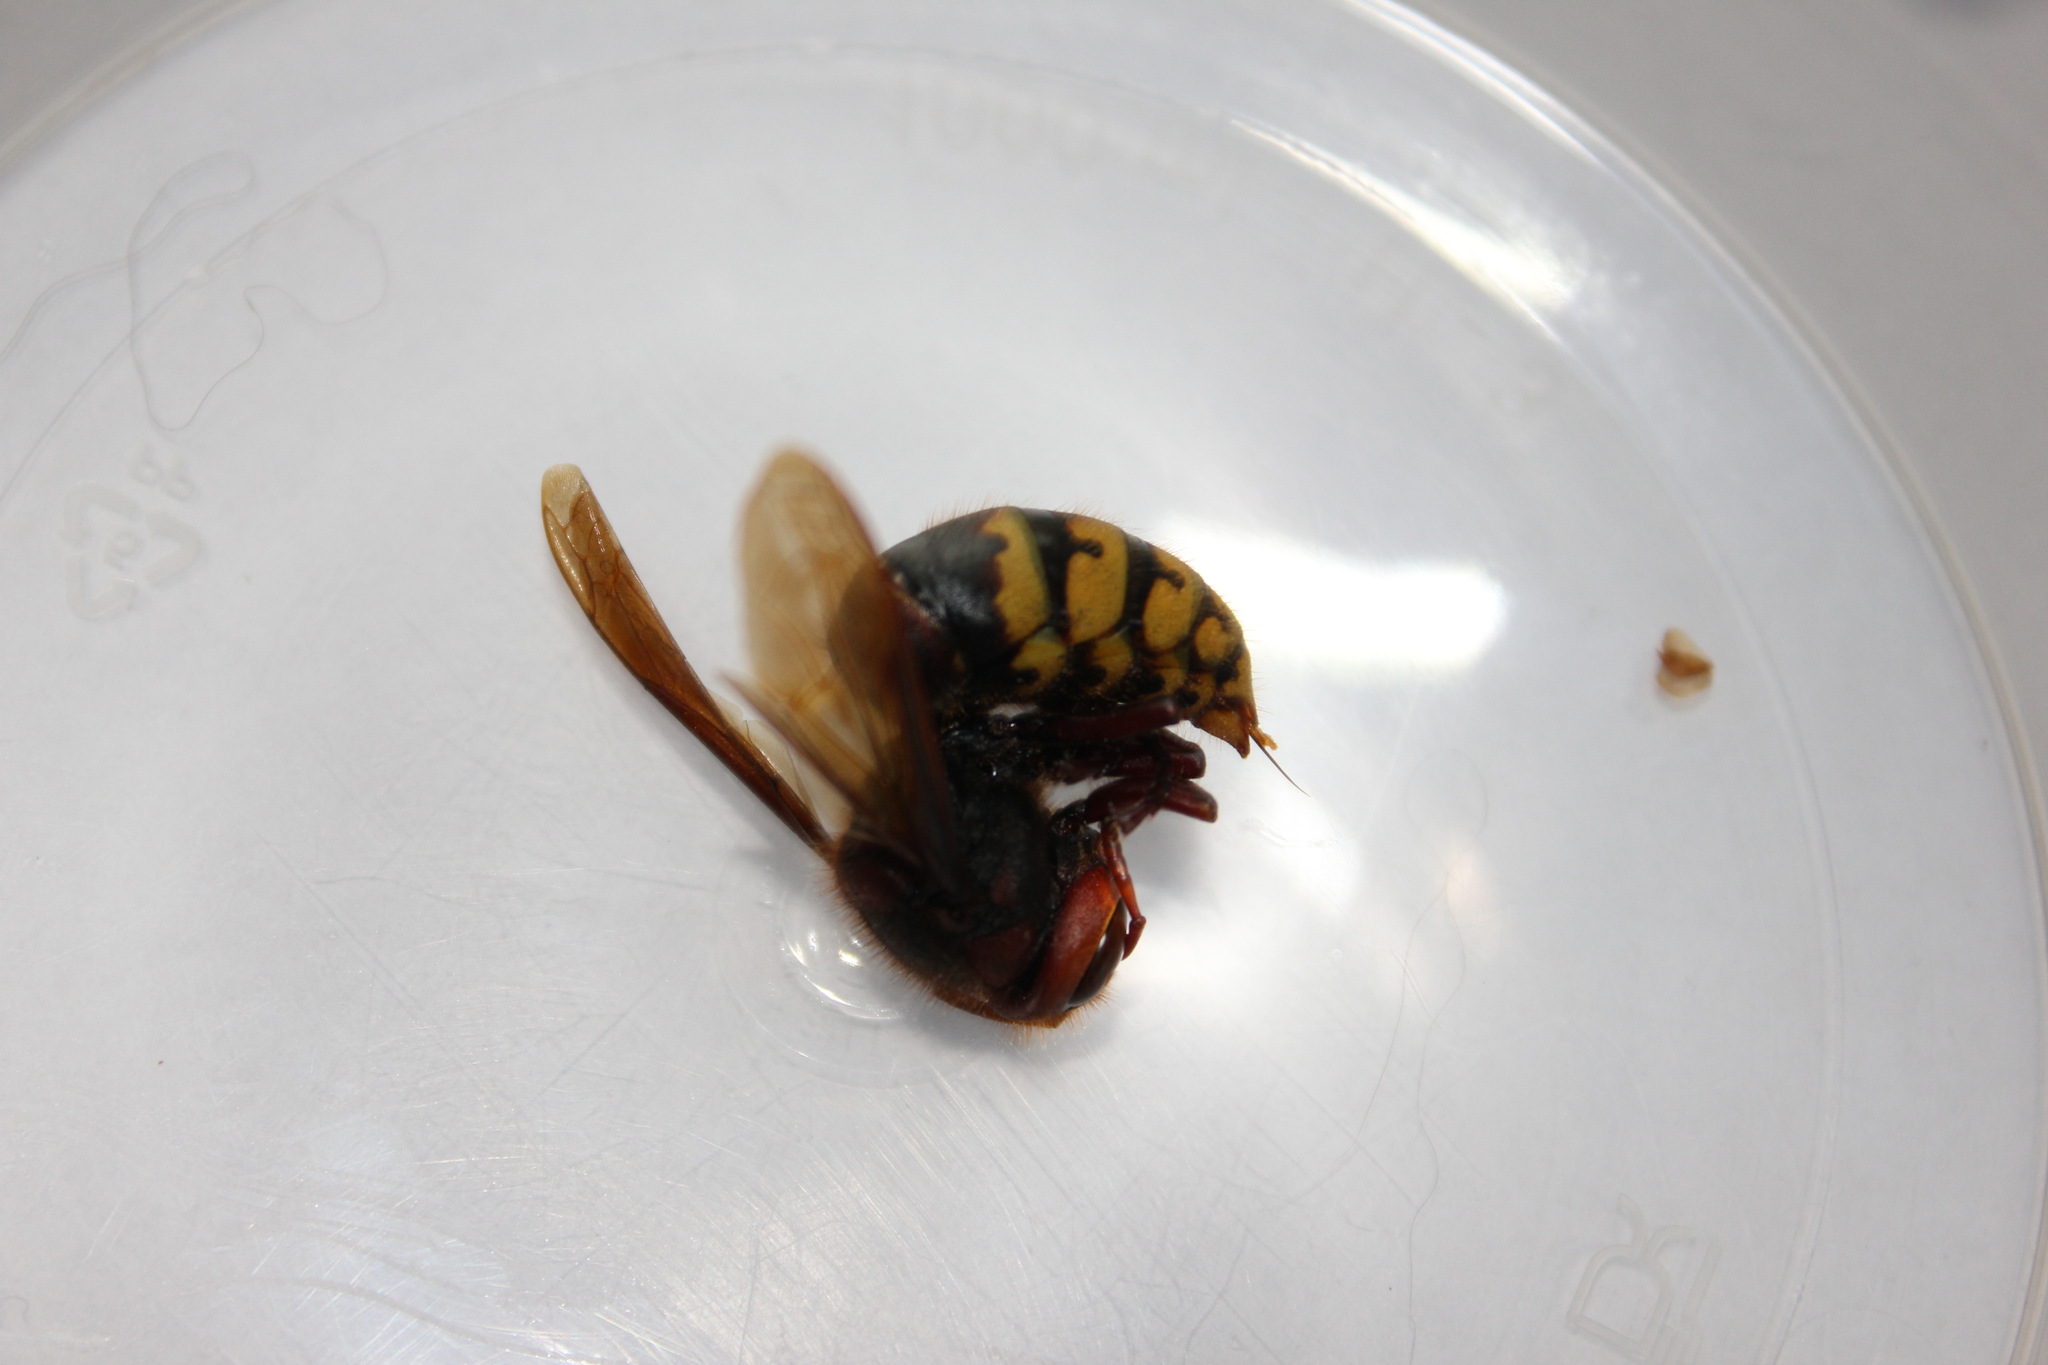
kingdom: Animalia
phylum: Arthropoda
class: Insecta
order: Hymenoptera
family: Vespidae
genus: Vespa
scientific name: Vespa crabro
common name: Hornet
